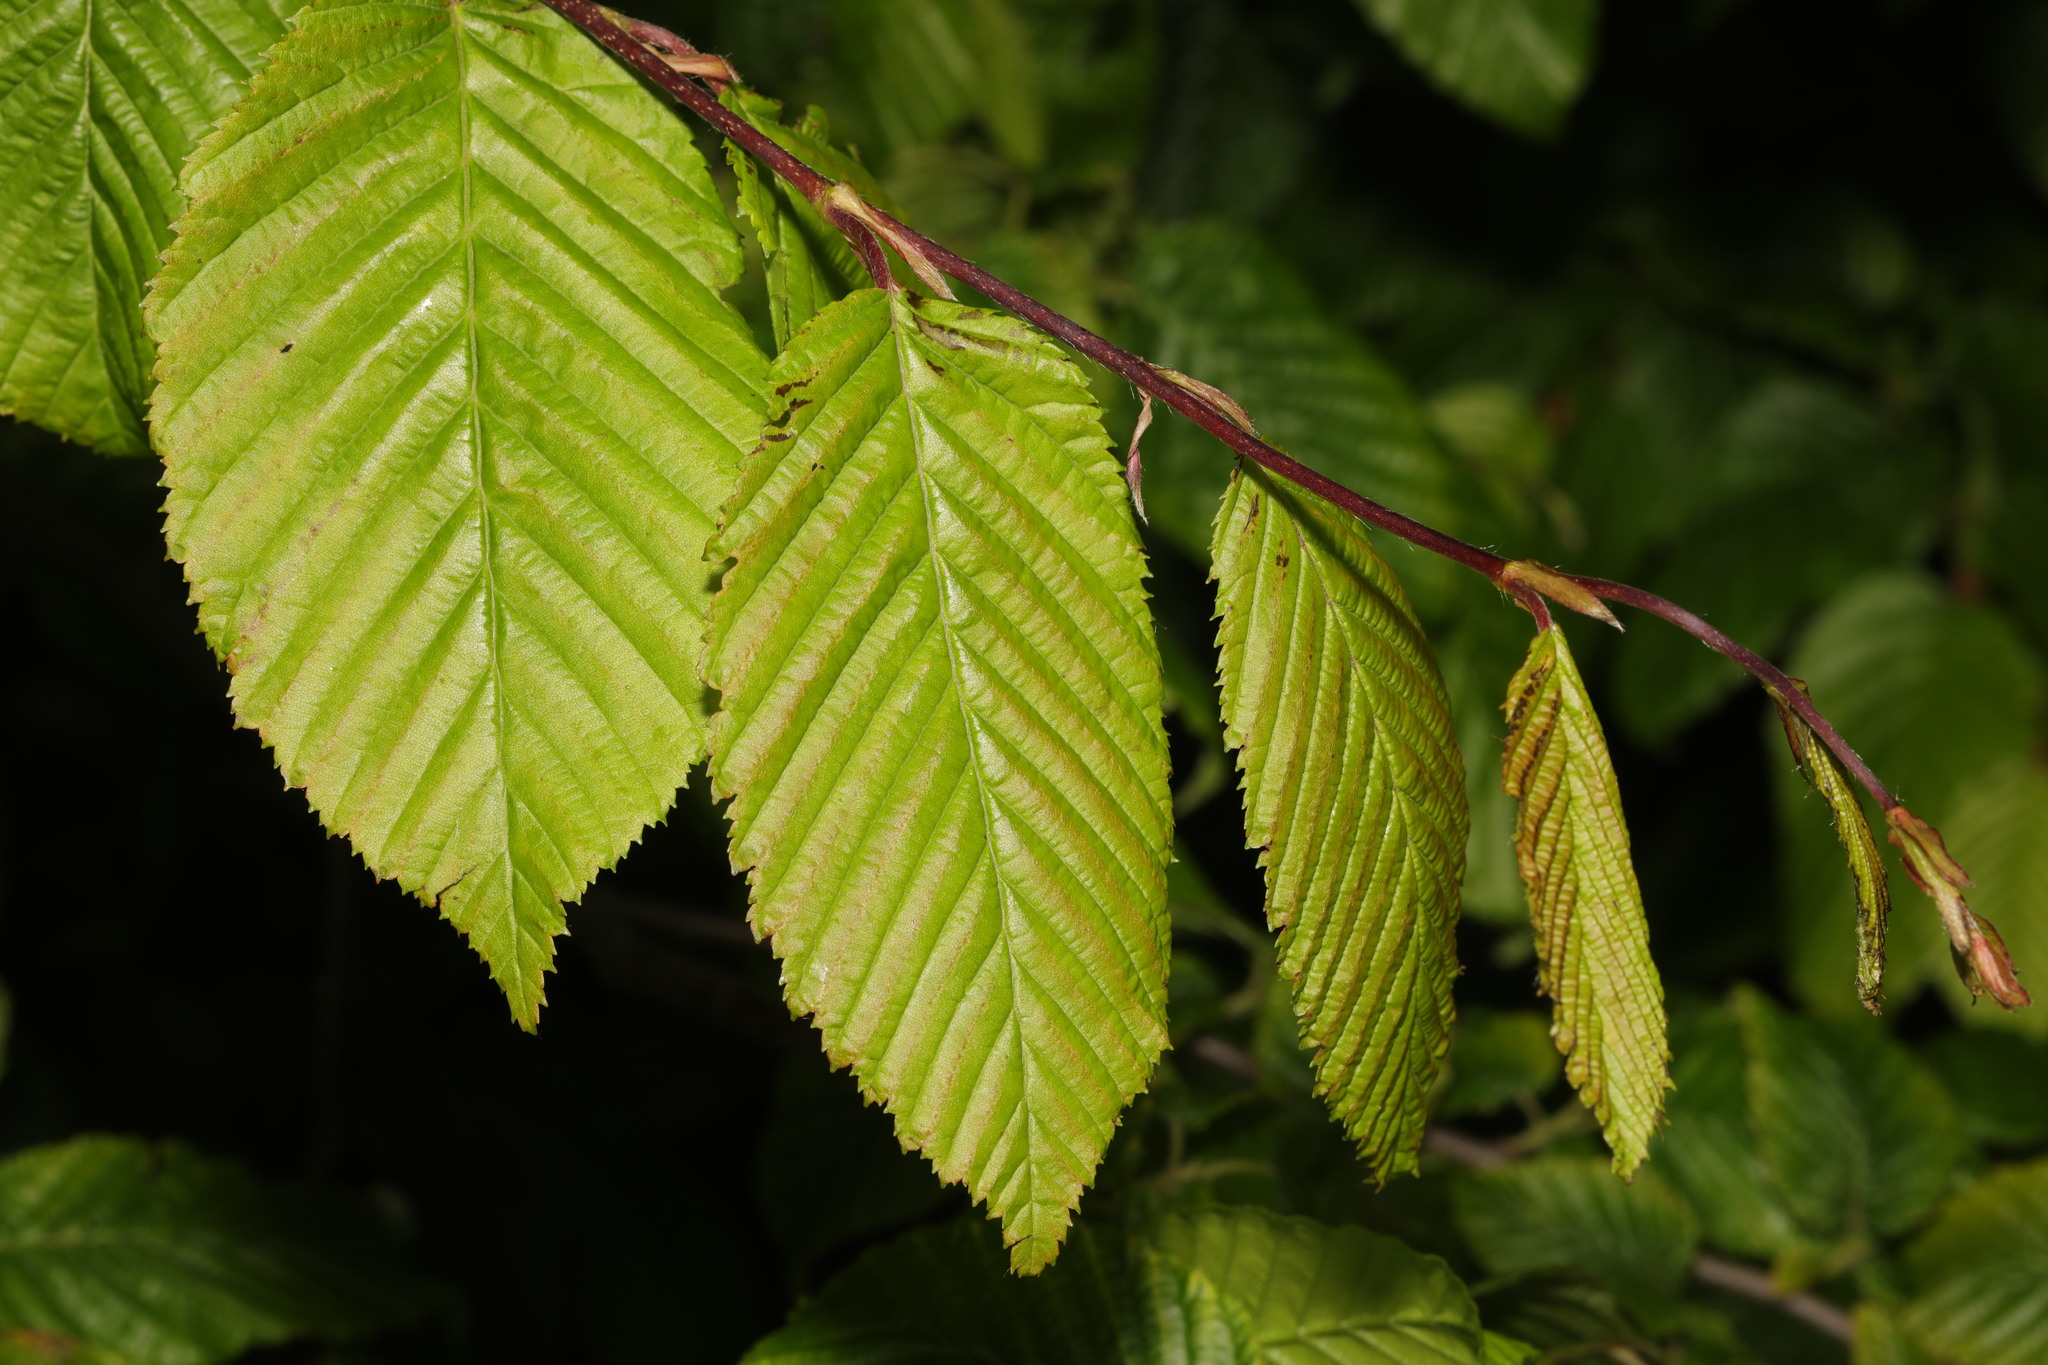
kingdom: Plantae
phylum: Tracheophyta
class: Magnoliopsida
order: Fagales
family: Betulaceae
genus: Carpinus
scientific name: Carpinus betulus
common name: Hornbeam
